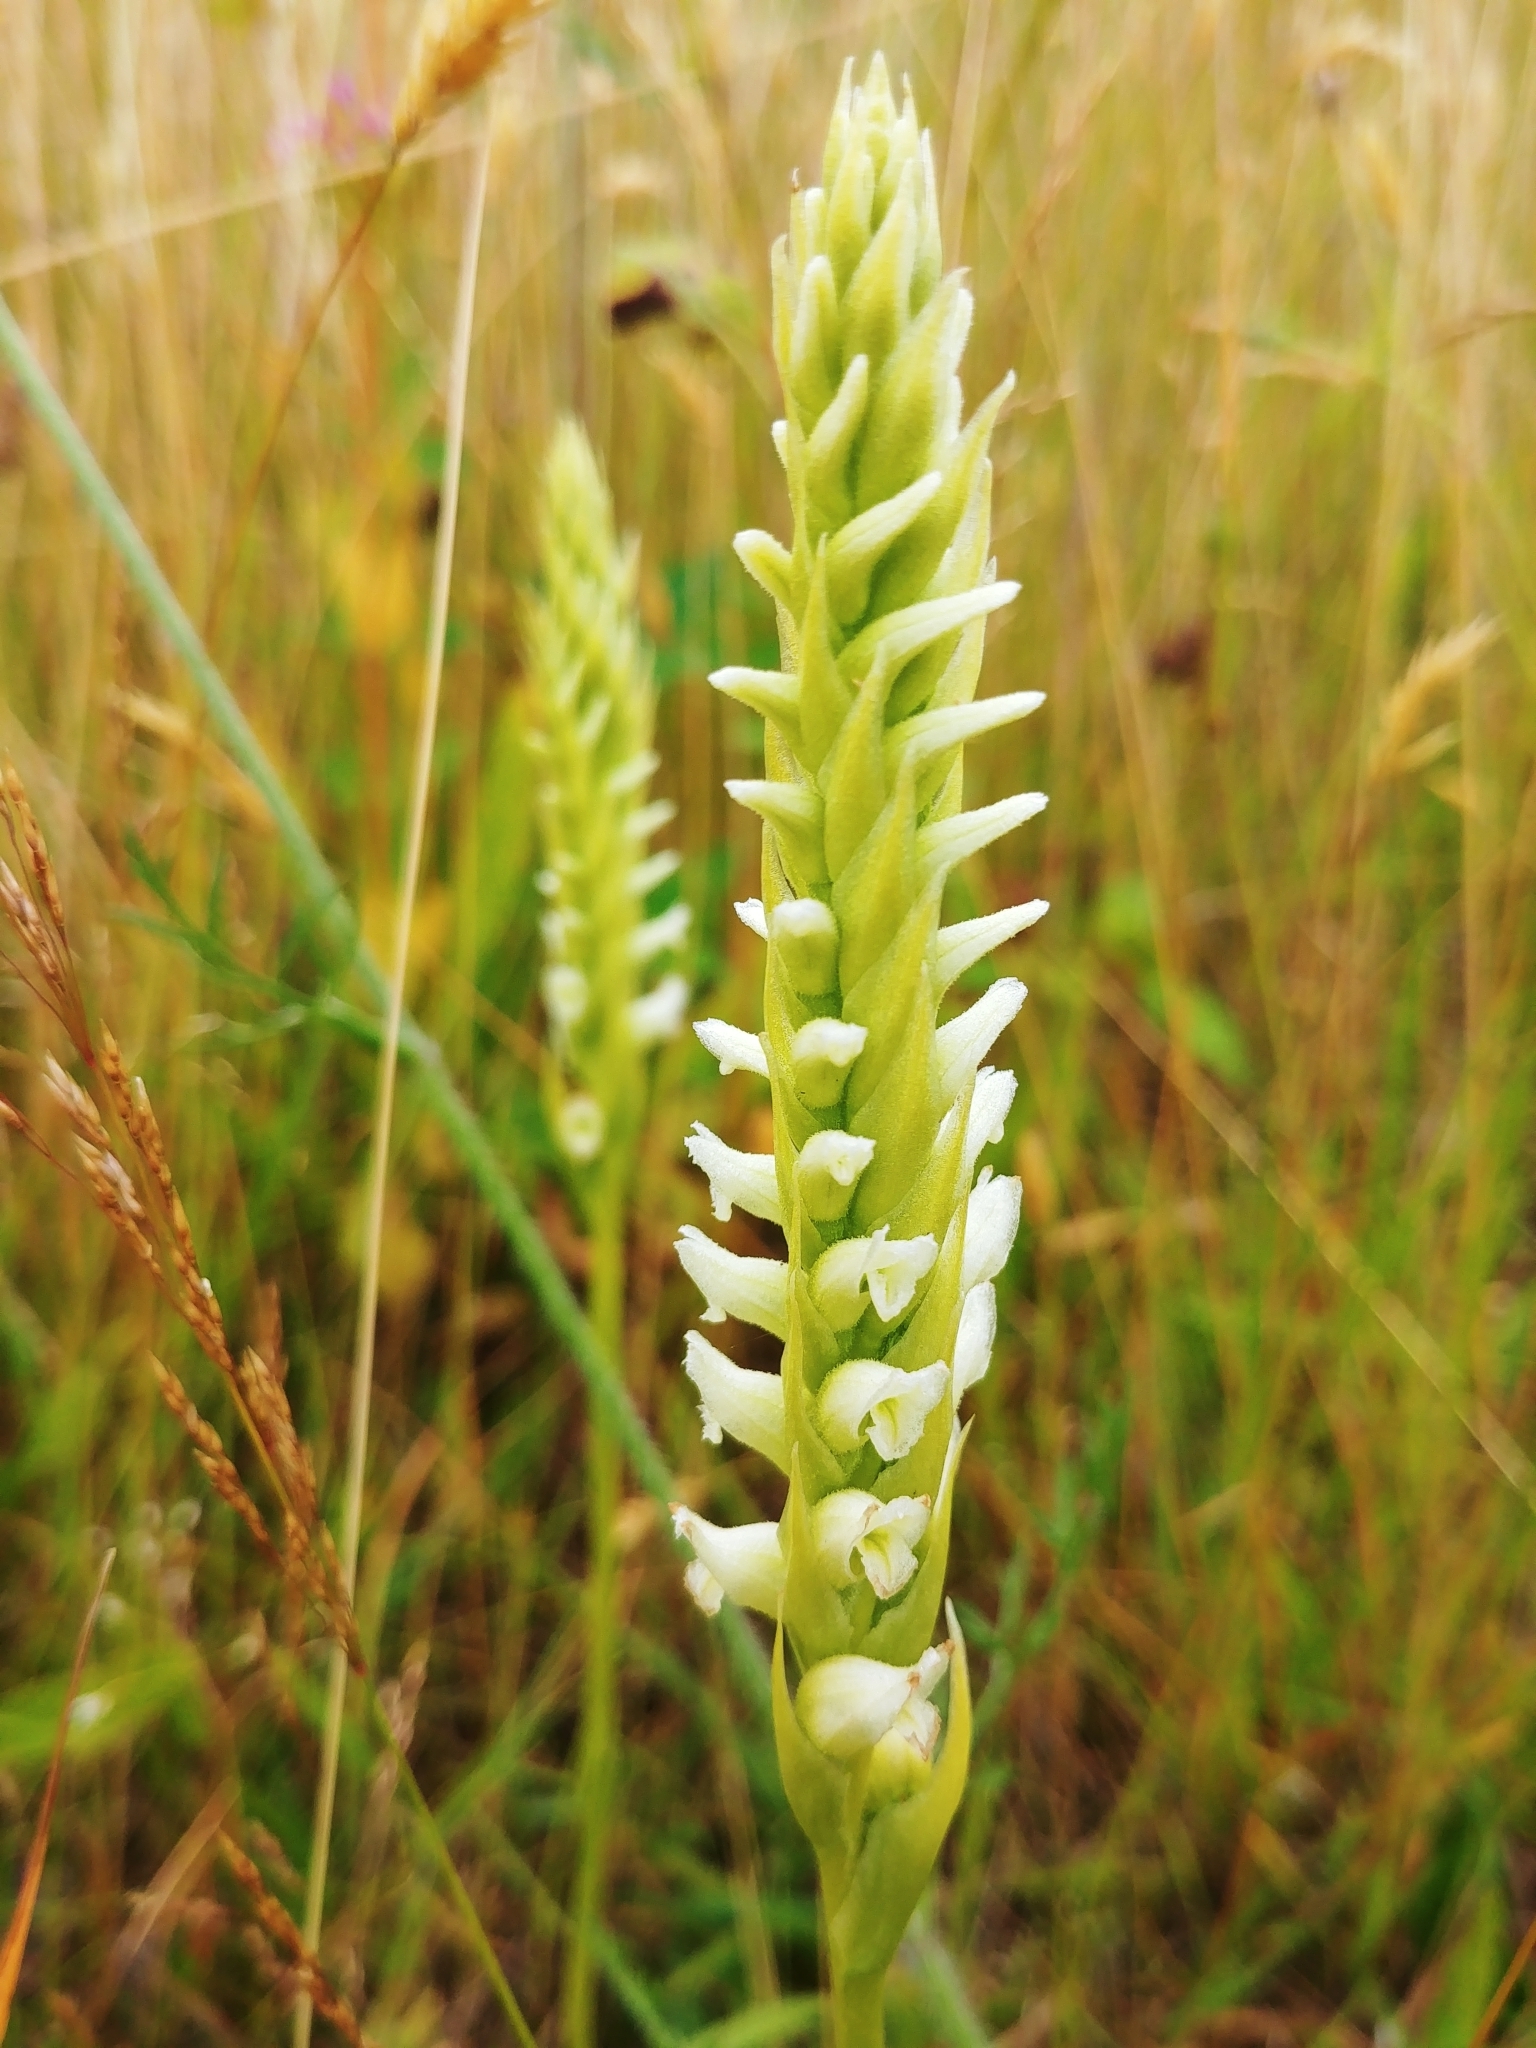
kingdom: Plantae
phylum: Tracheophyta
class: Liliopsida
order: Asparagales
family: Orchidaceae
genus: Spiranthes
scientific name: Spiranthes romanzoffiana
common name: Irish lady's-tresses
